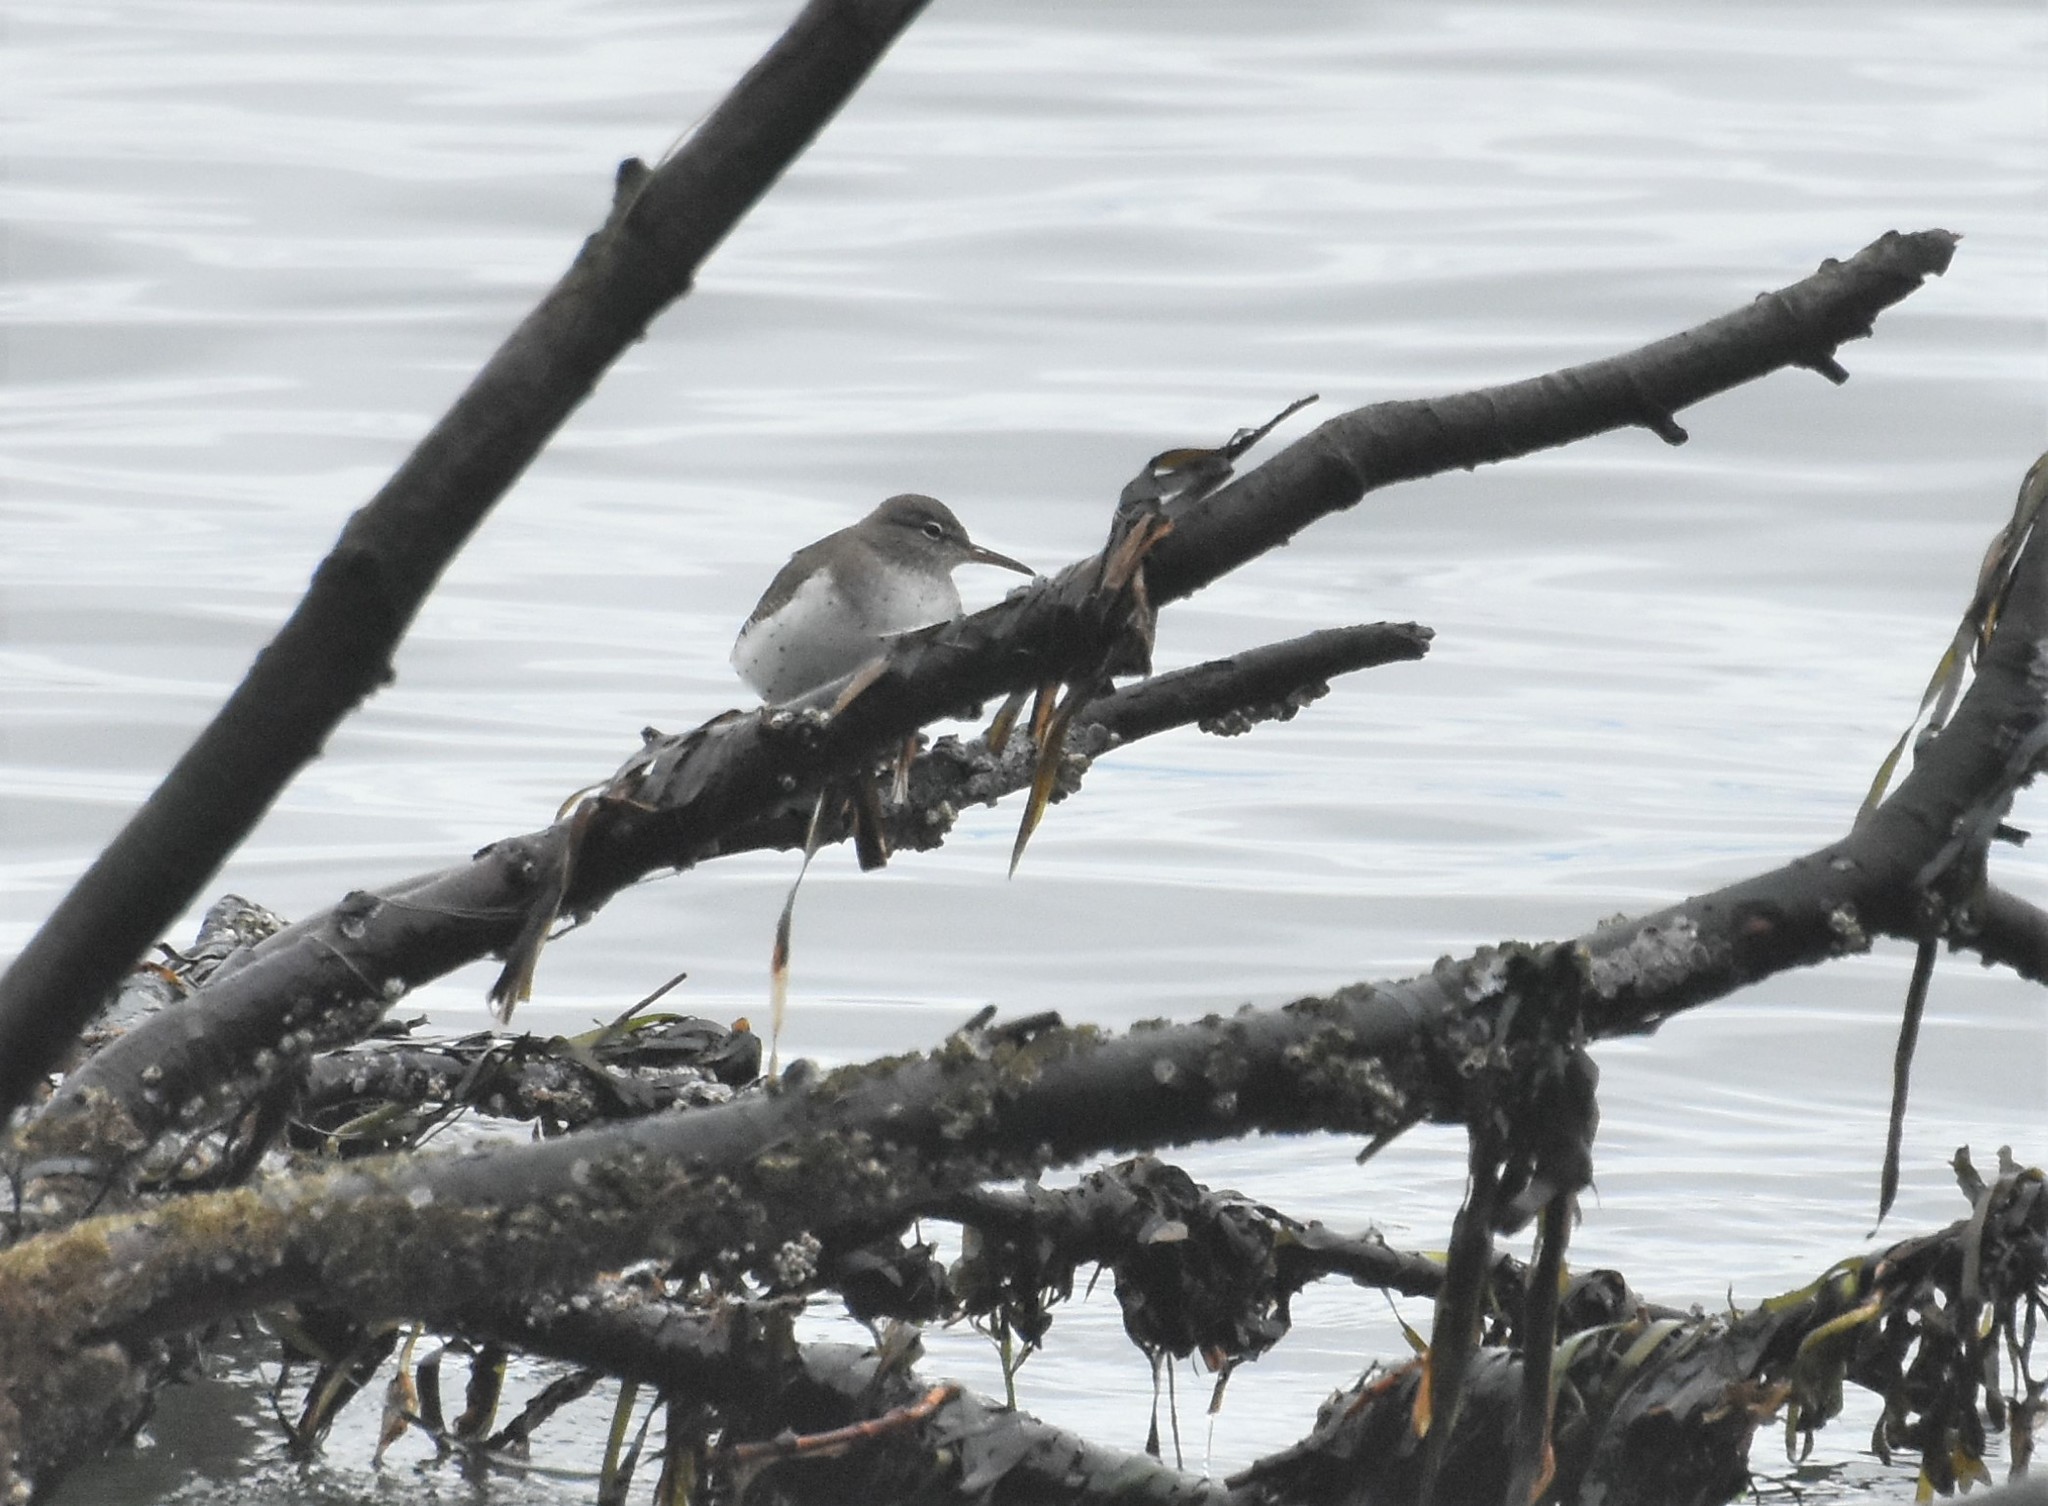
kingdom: Animalia
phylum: Chordata
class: Aves
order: Charadriiformes
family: Scolopacidae
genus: Actitis
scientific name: Actitis macularius
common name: Spotted sandpiper
